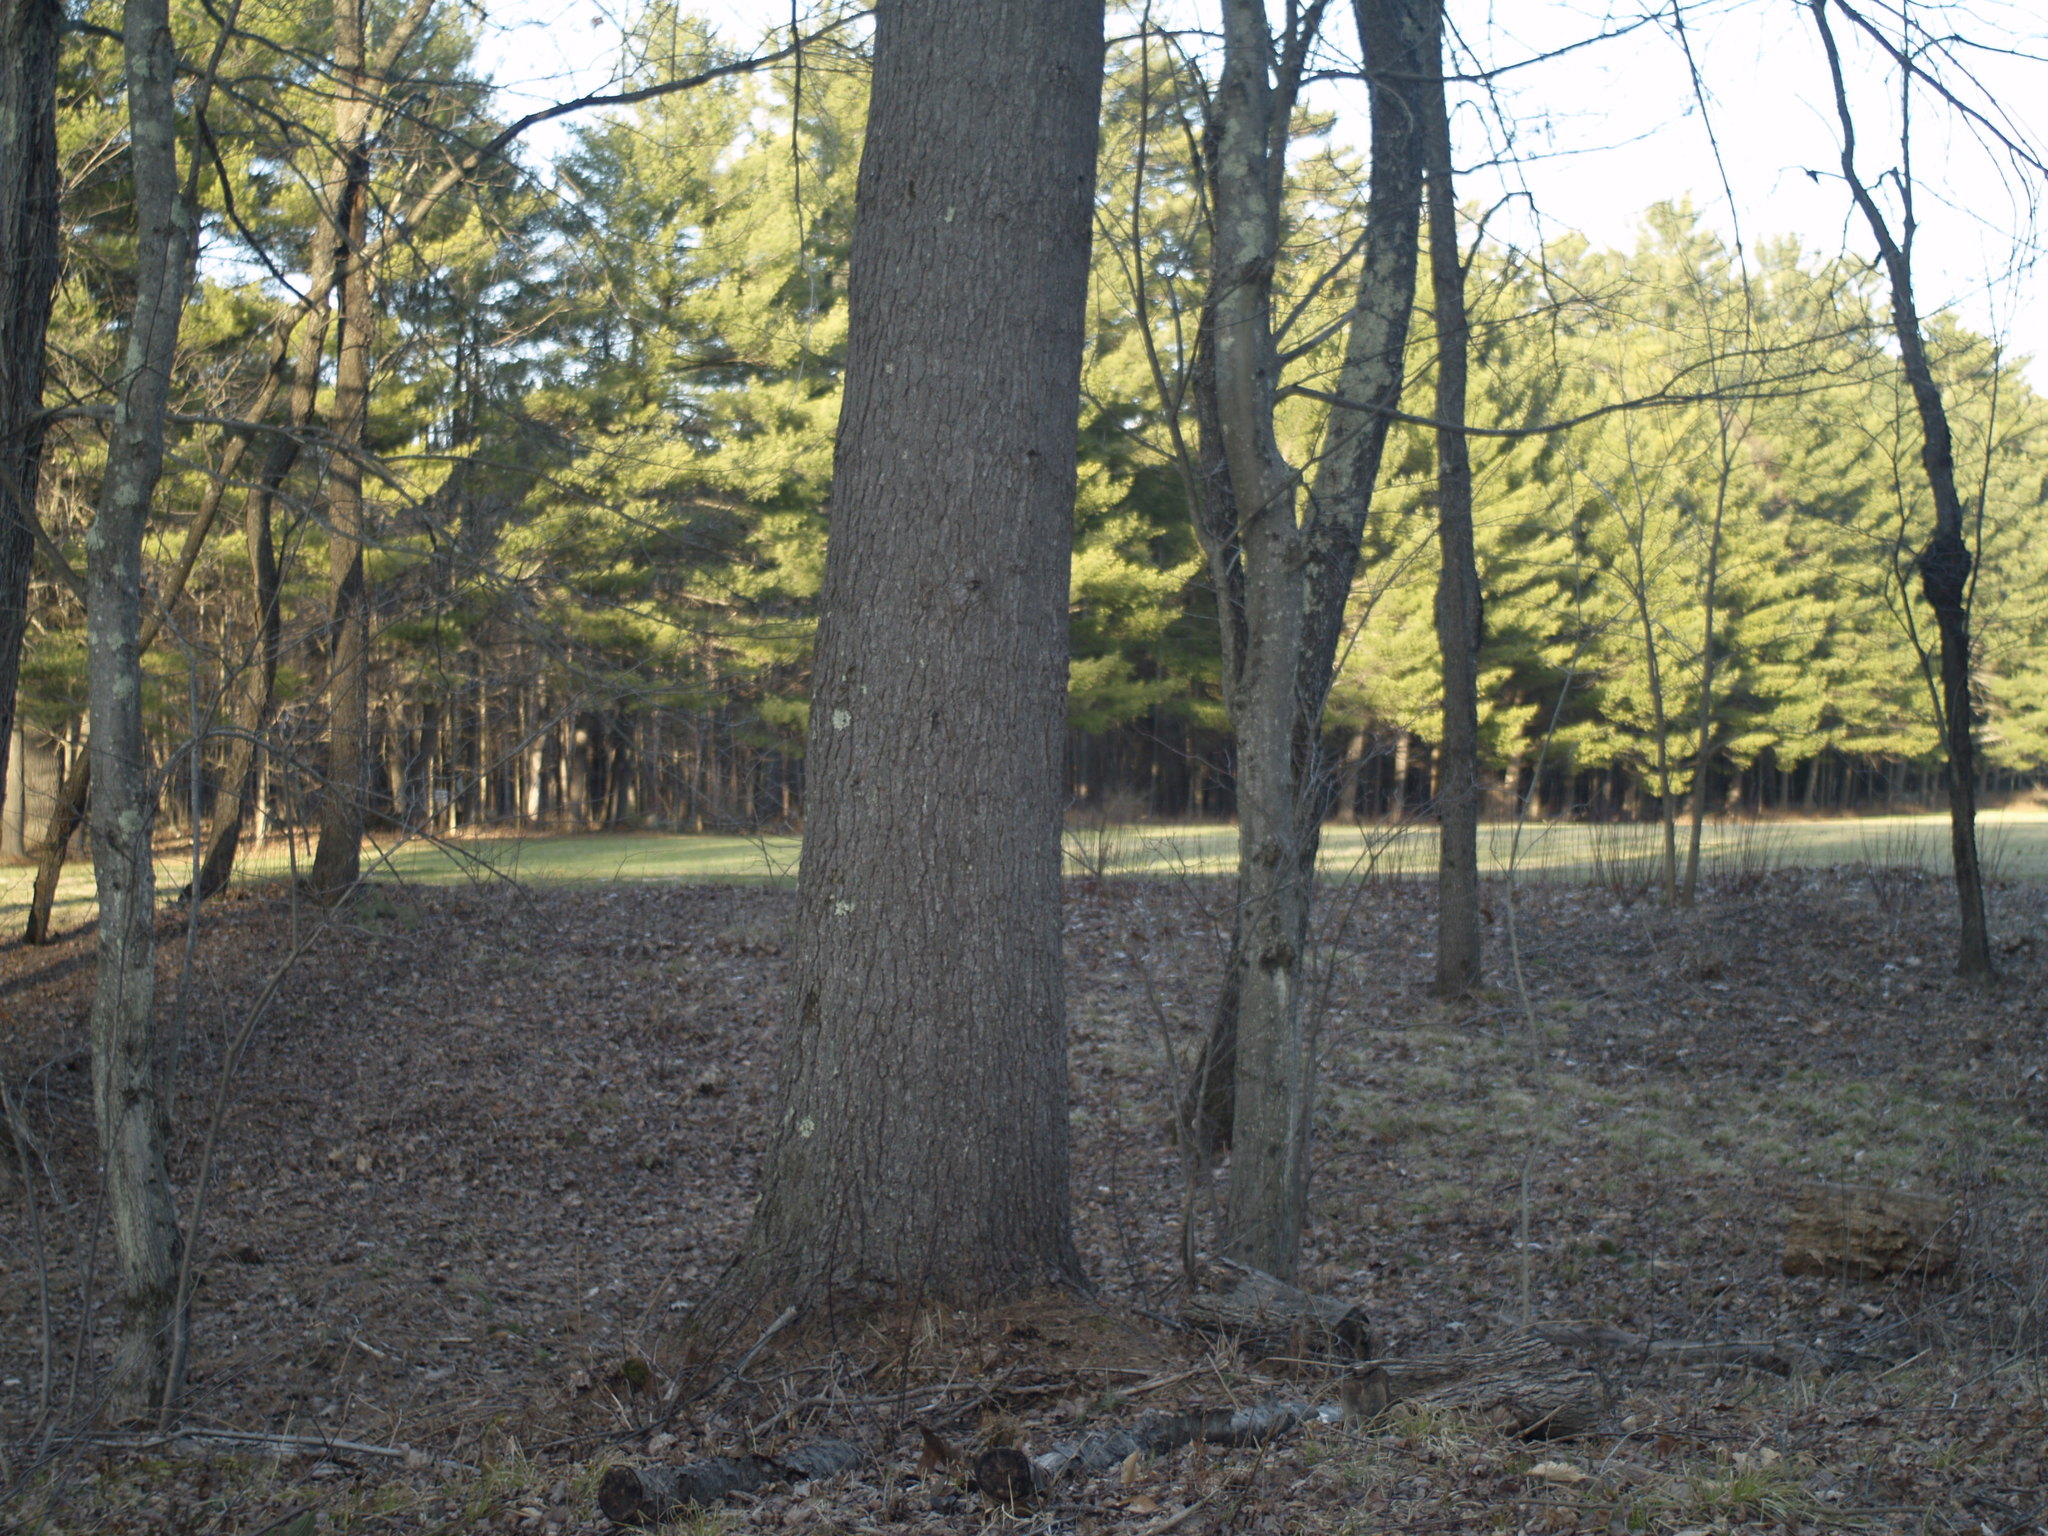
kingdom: Plantae
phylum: Tracheophyta
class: Pinopsida
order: Pinales
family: Pinaceae
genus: Pinus
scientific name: Pinus strobus
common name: Weymouth pine
